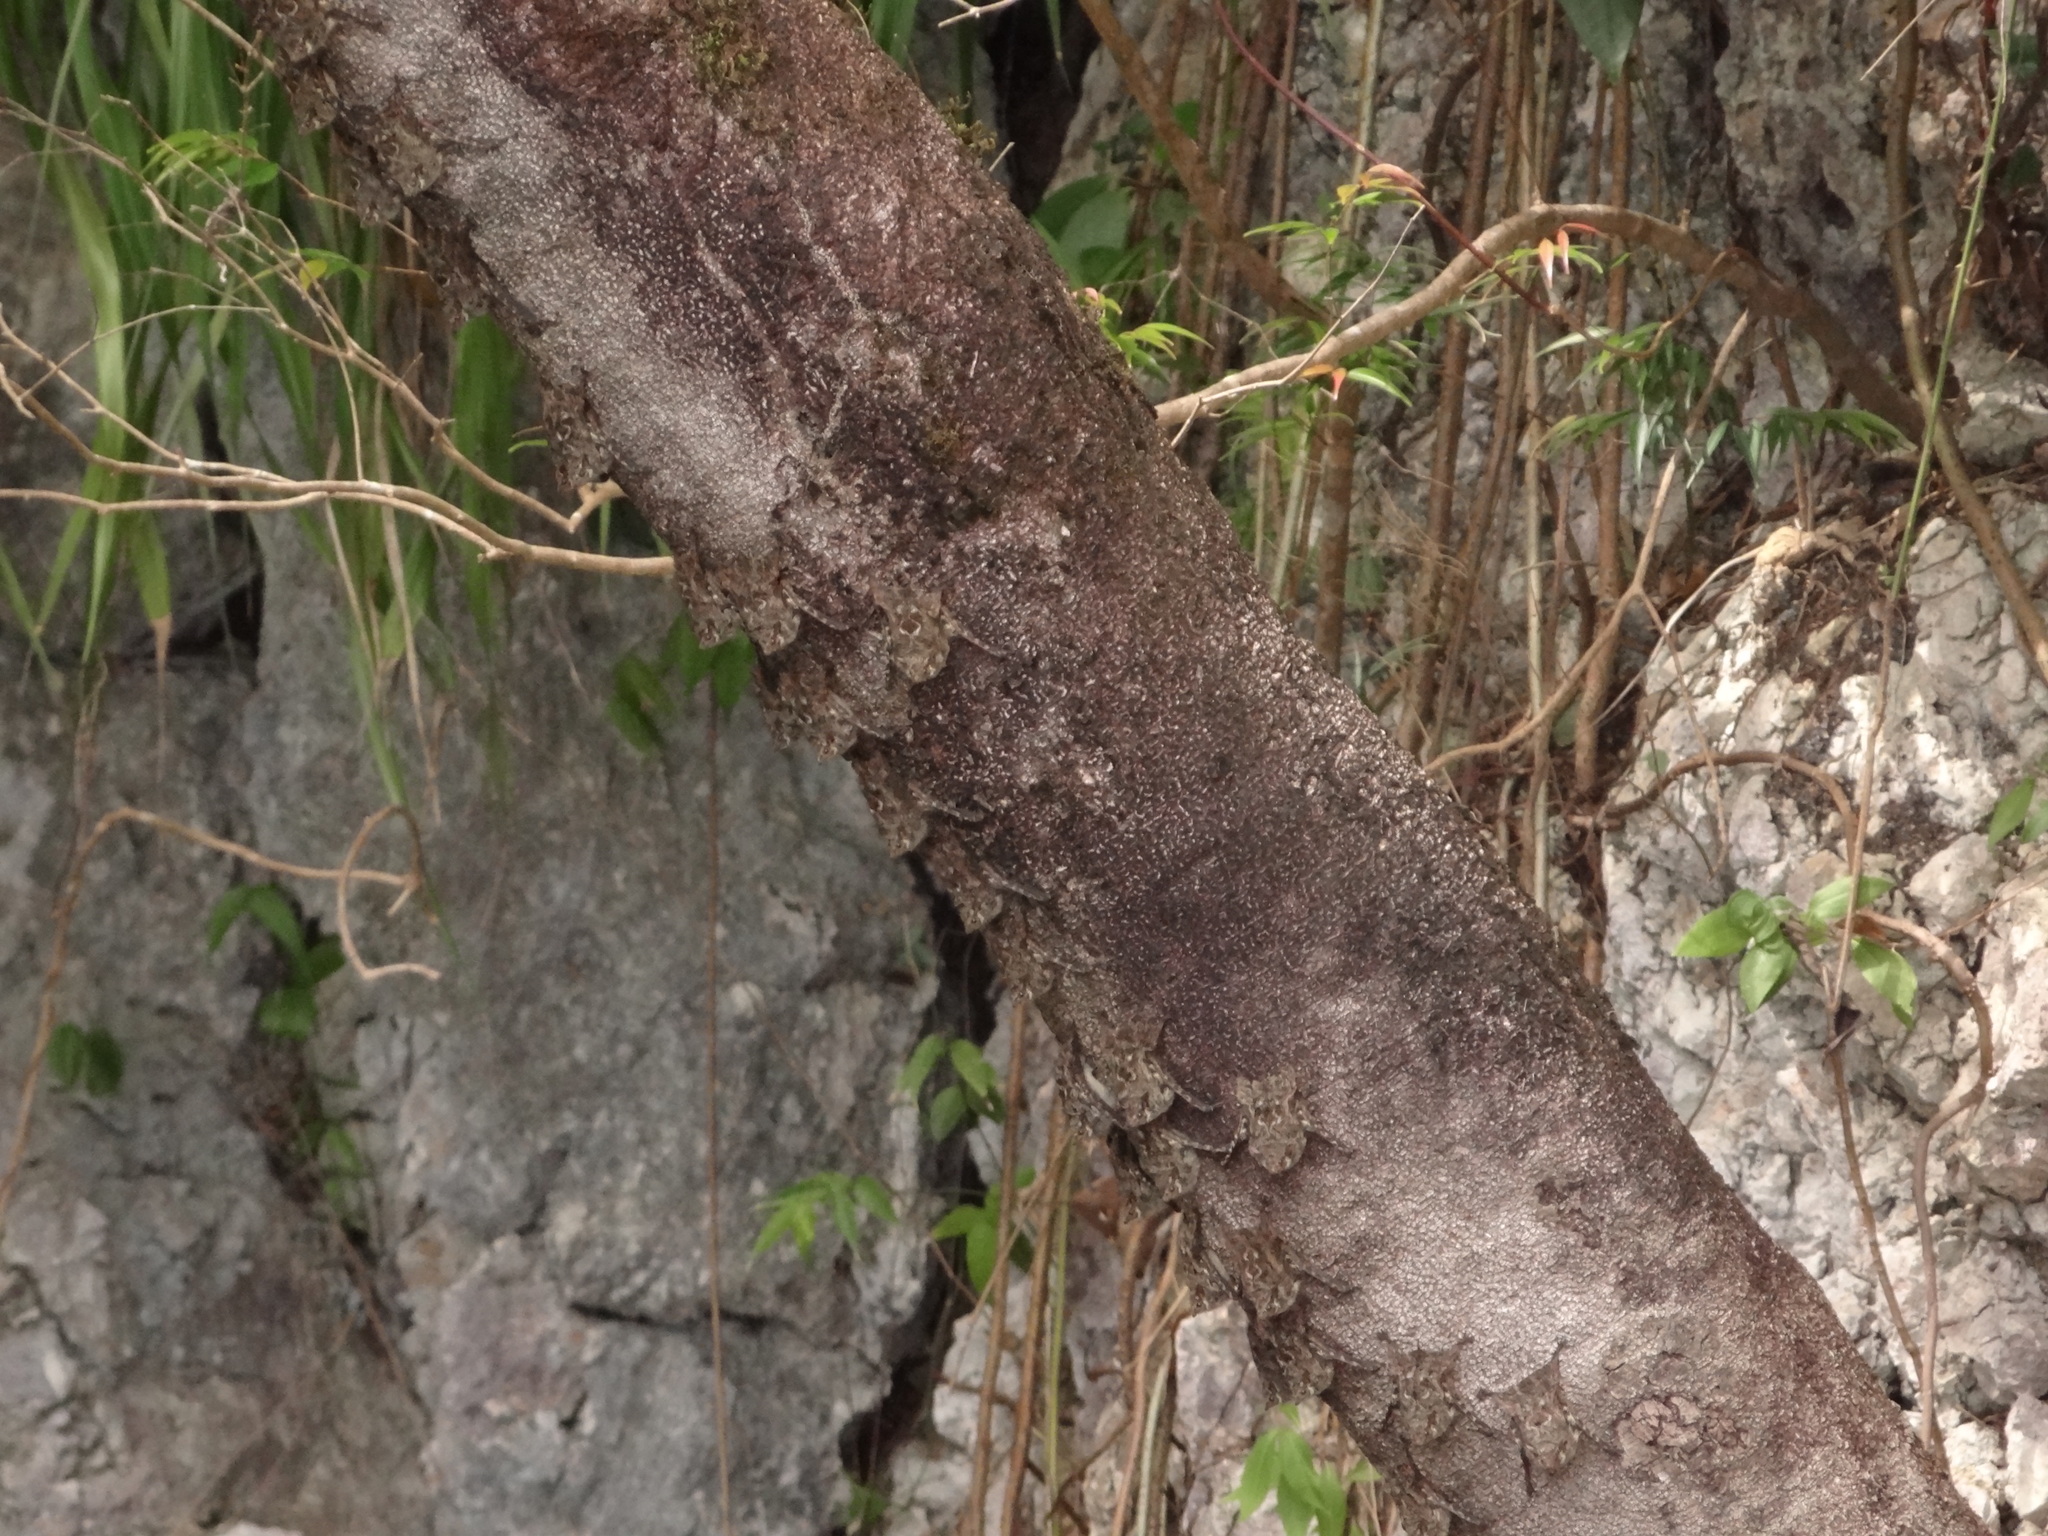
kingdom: Animalia
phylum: Chordata
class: Mammalia
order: Chiroptera
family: Emballonuridae
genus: Rhynchonycteris
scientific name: Rhynchonycteris naso
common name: Proboscis bat
